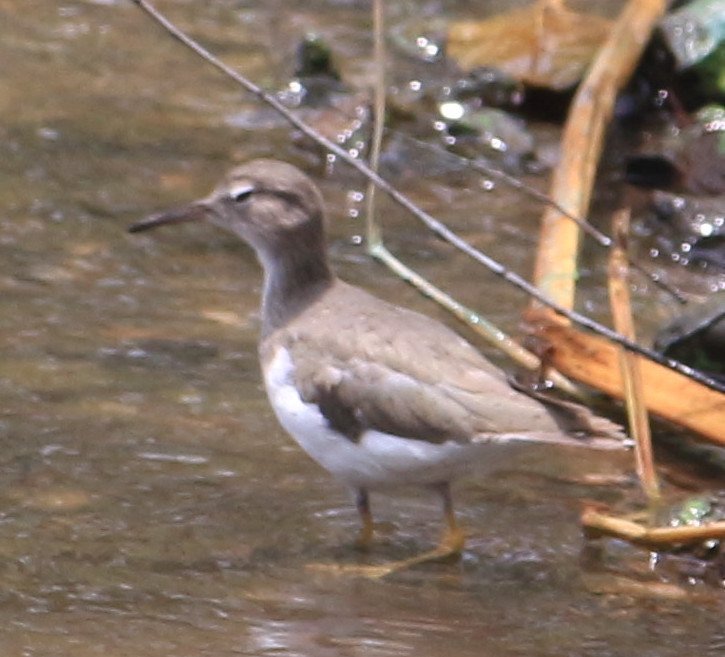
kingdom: Animalia
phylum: Chordata
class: Aves
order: Charadriiformes
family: Scolopacidae
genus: Actitis
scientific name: Actitis macularius
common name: Spotted sandpiper
